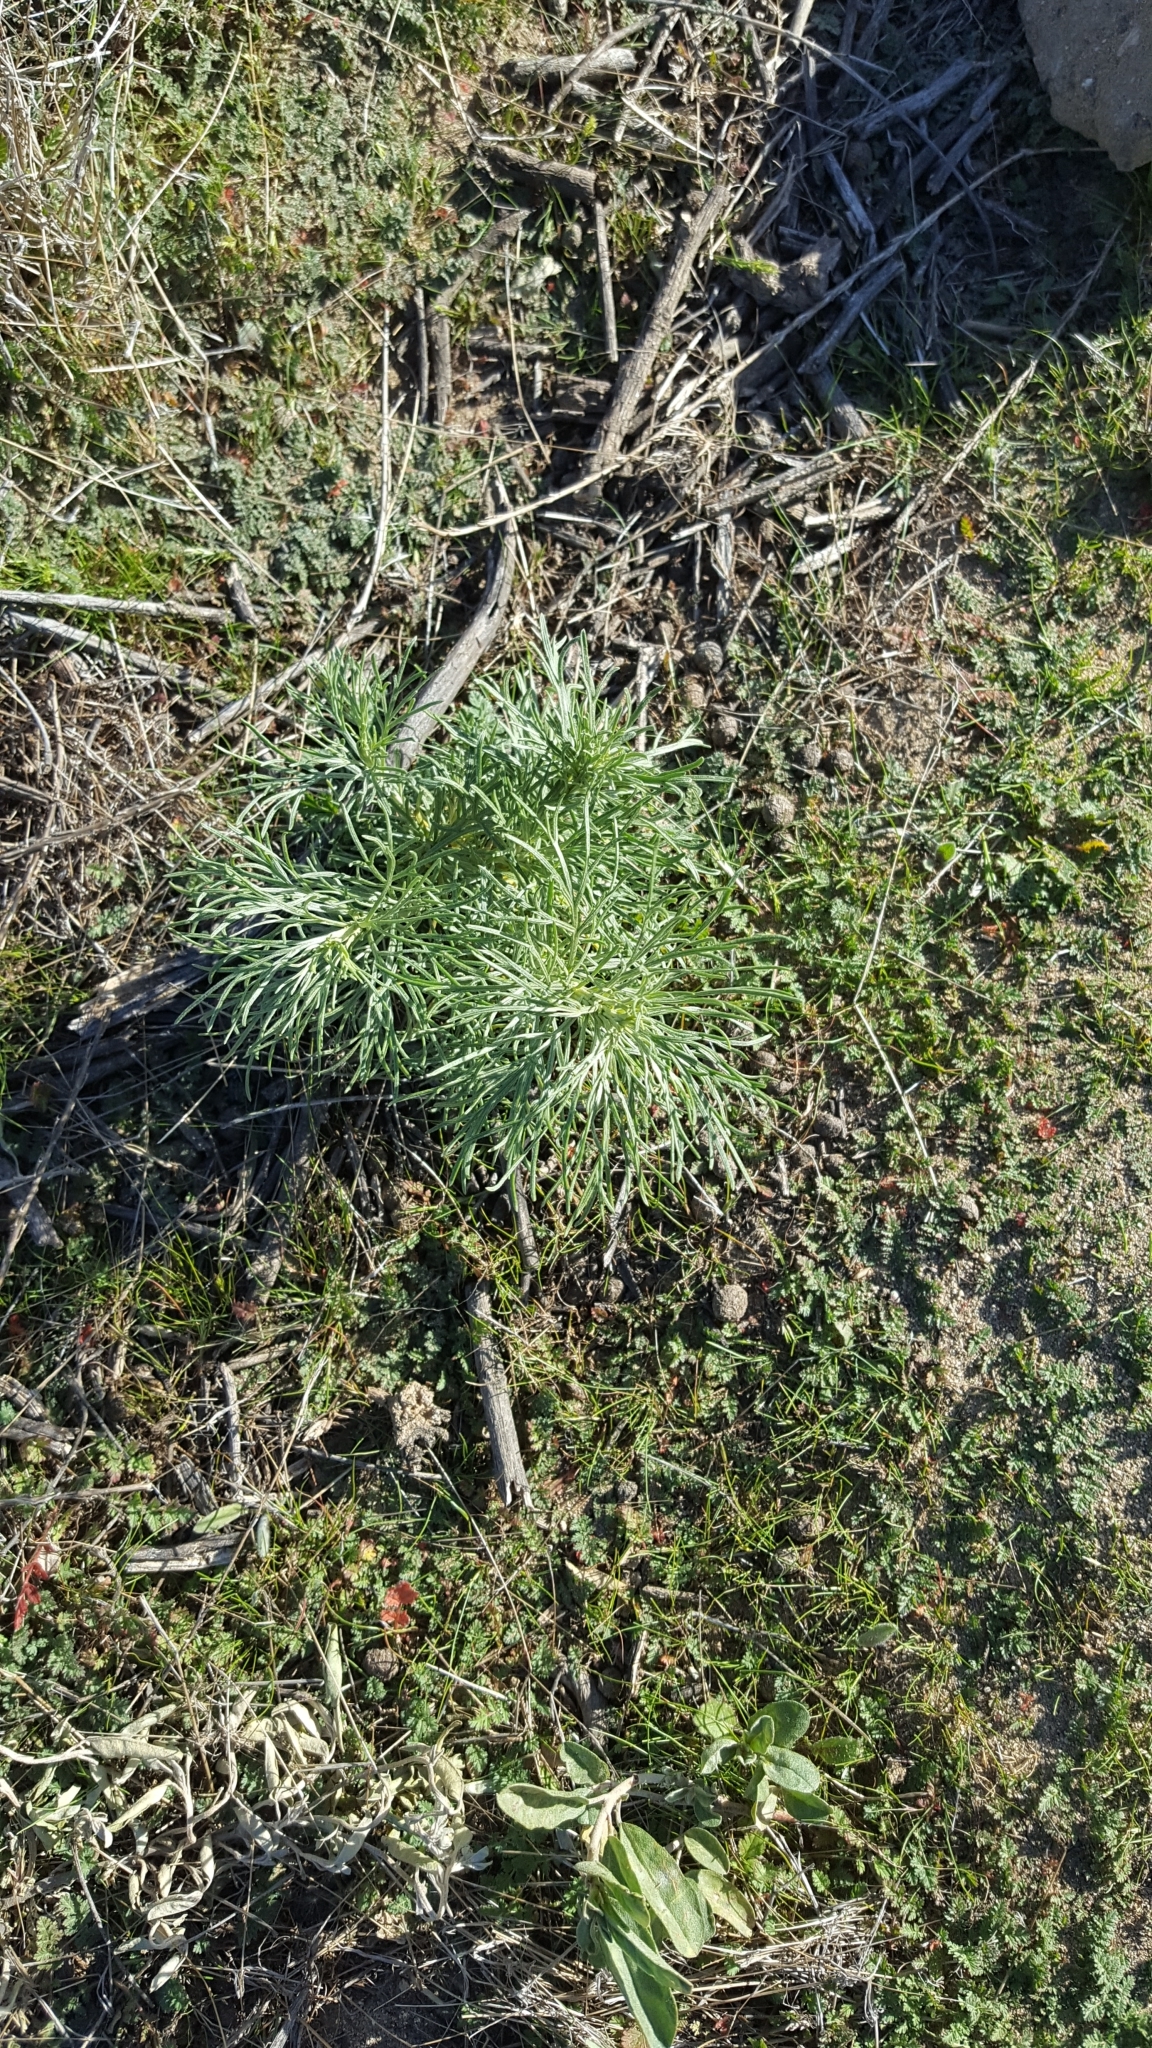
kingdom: Plantae
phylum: Tracheophyta
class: Magnoliopsida
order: Asterales
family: Asteraceae
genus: Artemisia
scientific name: Artemisia californica
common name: California sagebrush
